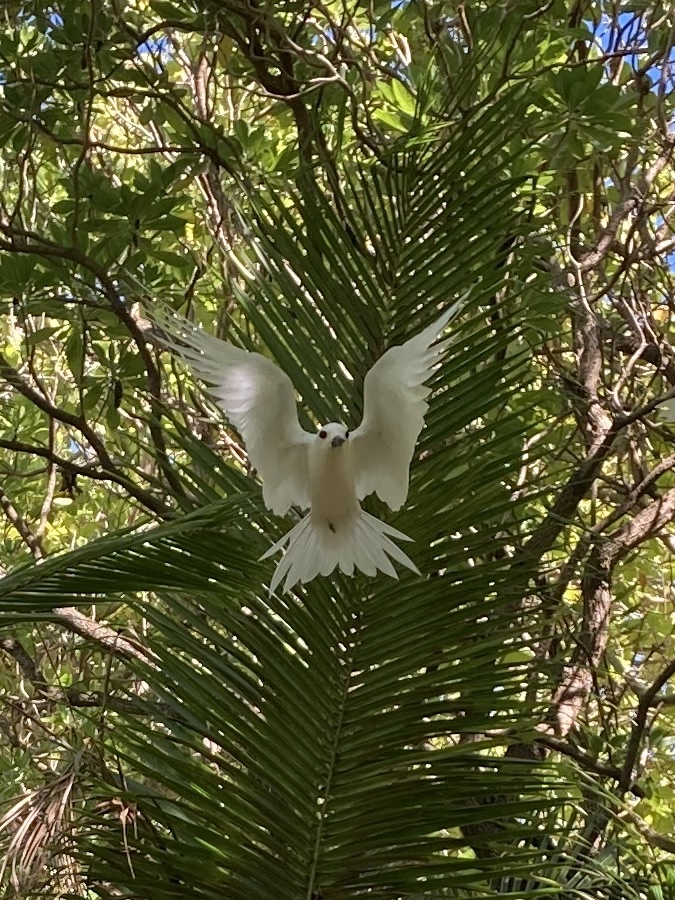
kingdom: Animalia
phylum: Chordata
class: Aves
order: Charadriiformes
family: Laridae
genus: Gygis
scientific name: Gygis alba
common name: White tern
